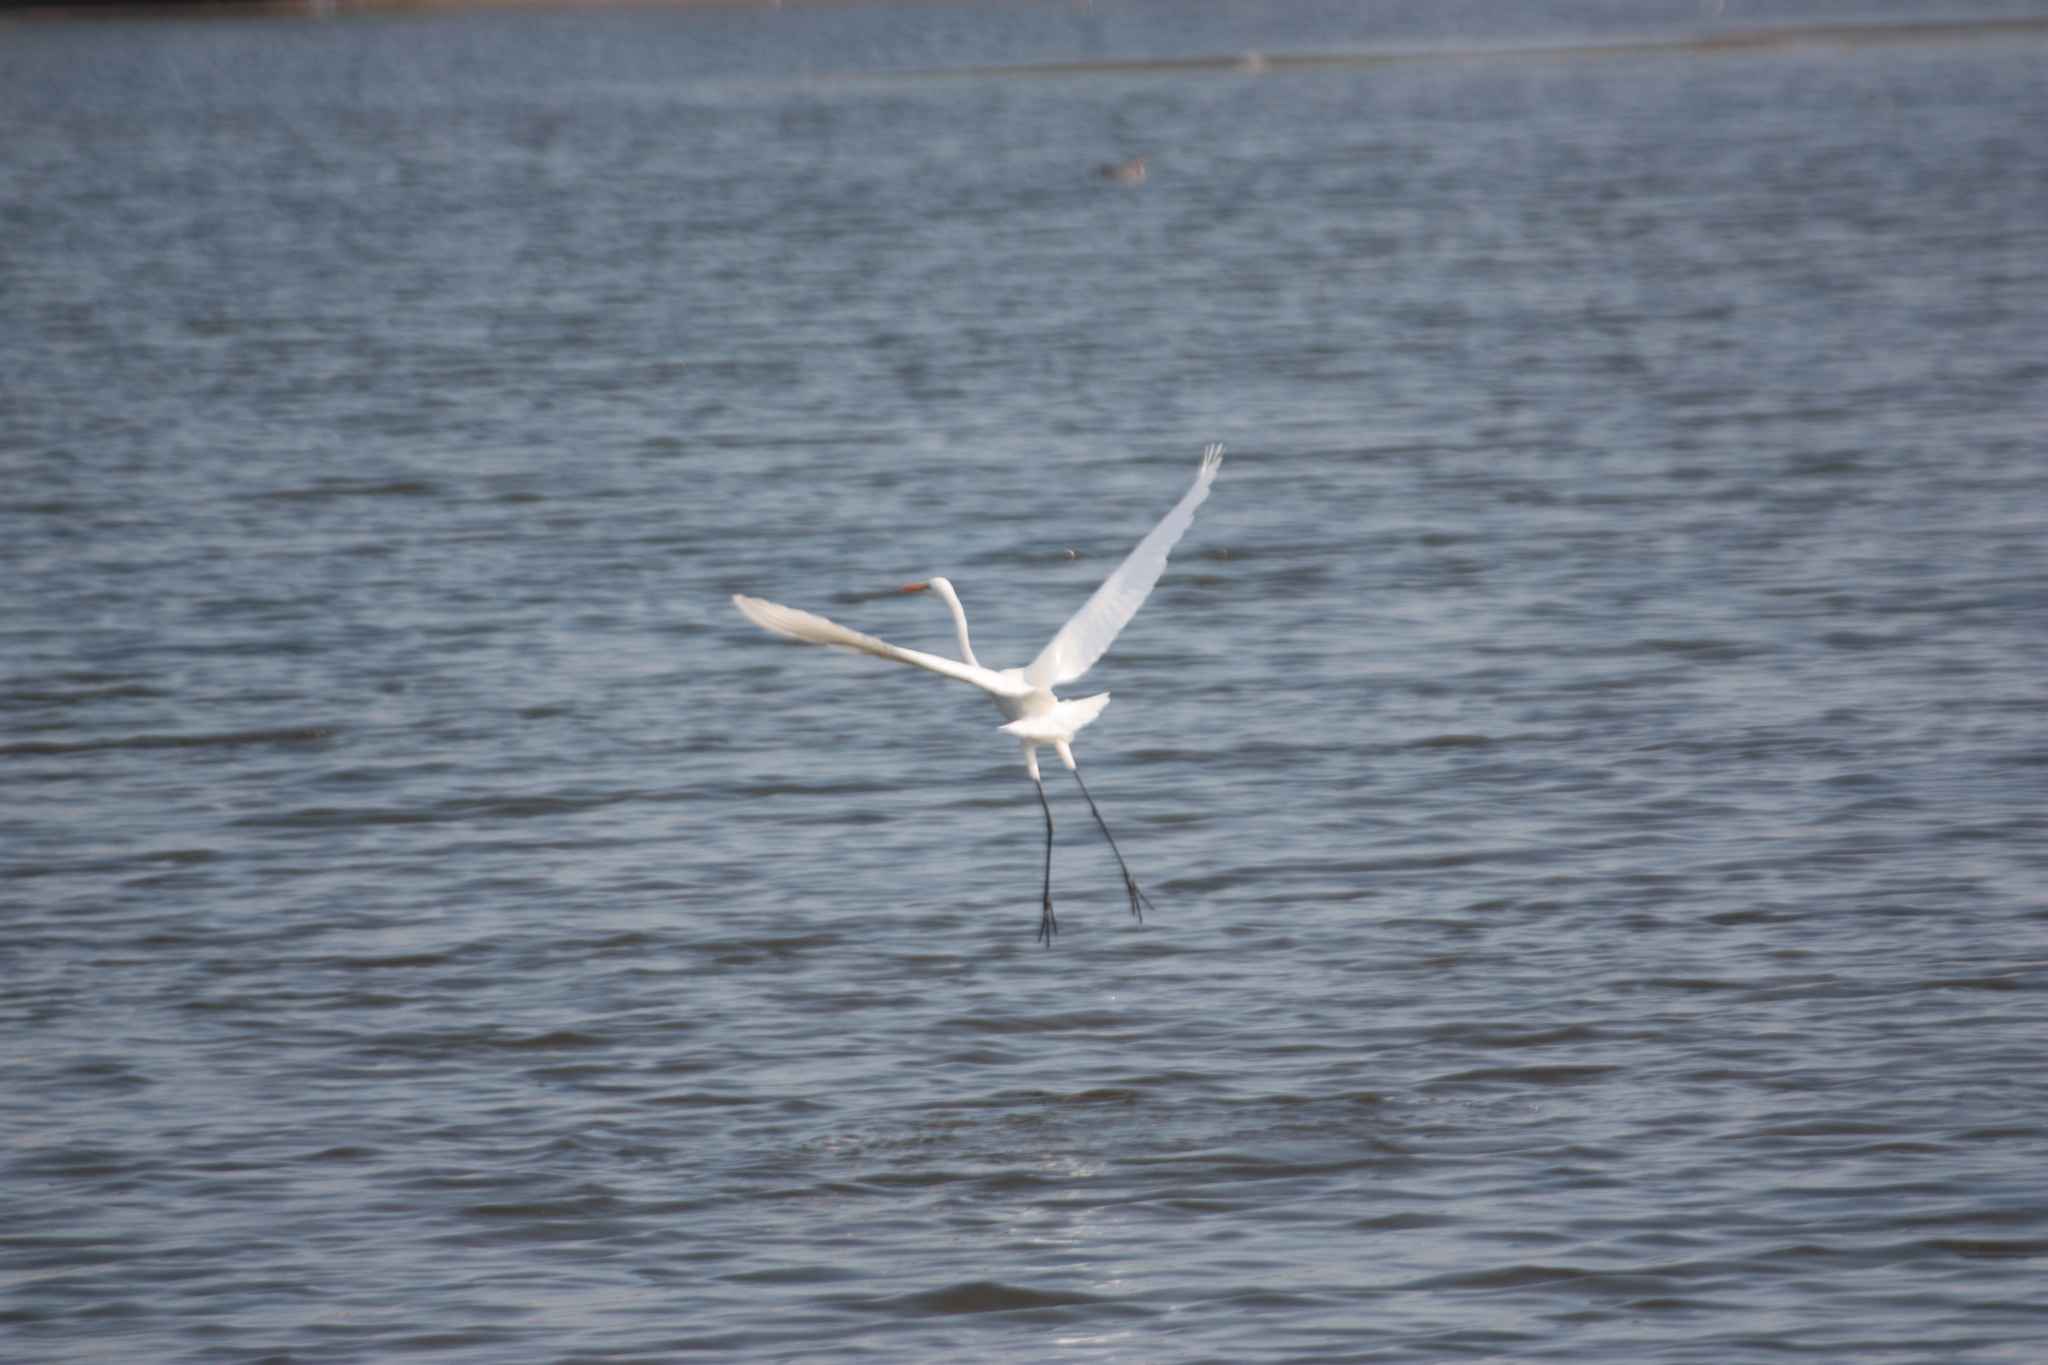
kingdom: Animalia
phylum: Chordata
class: Aves
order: Pelecaniformes
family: Ardeidae
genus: Ardea
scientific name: Ardea alba
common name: Great egret
